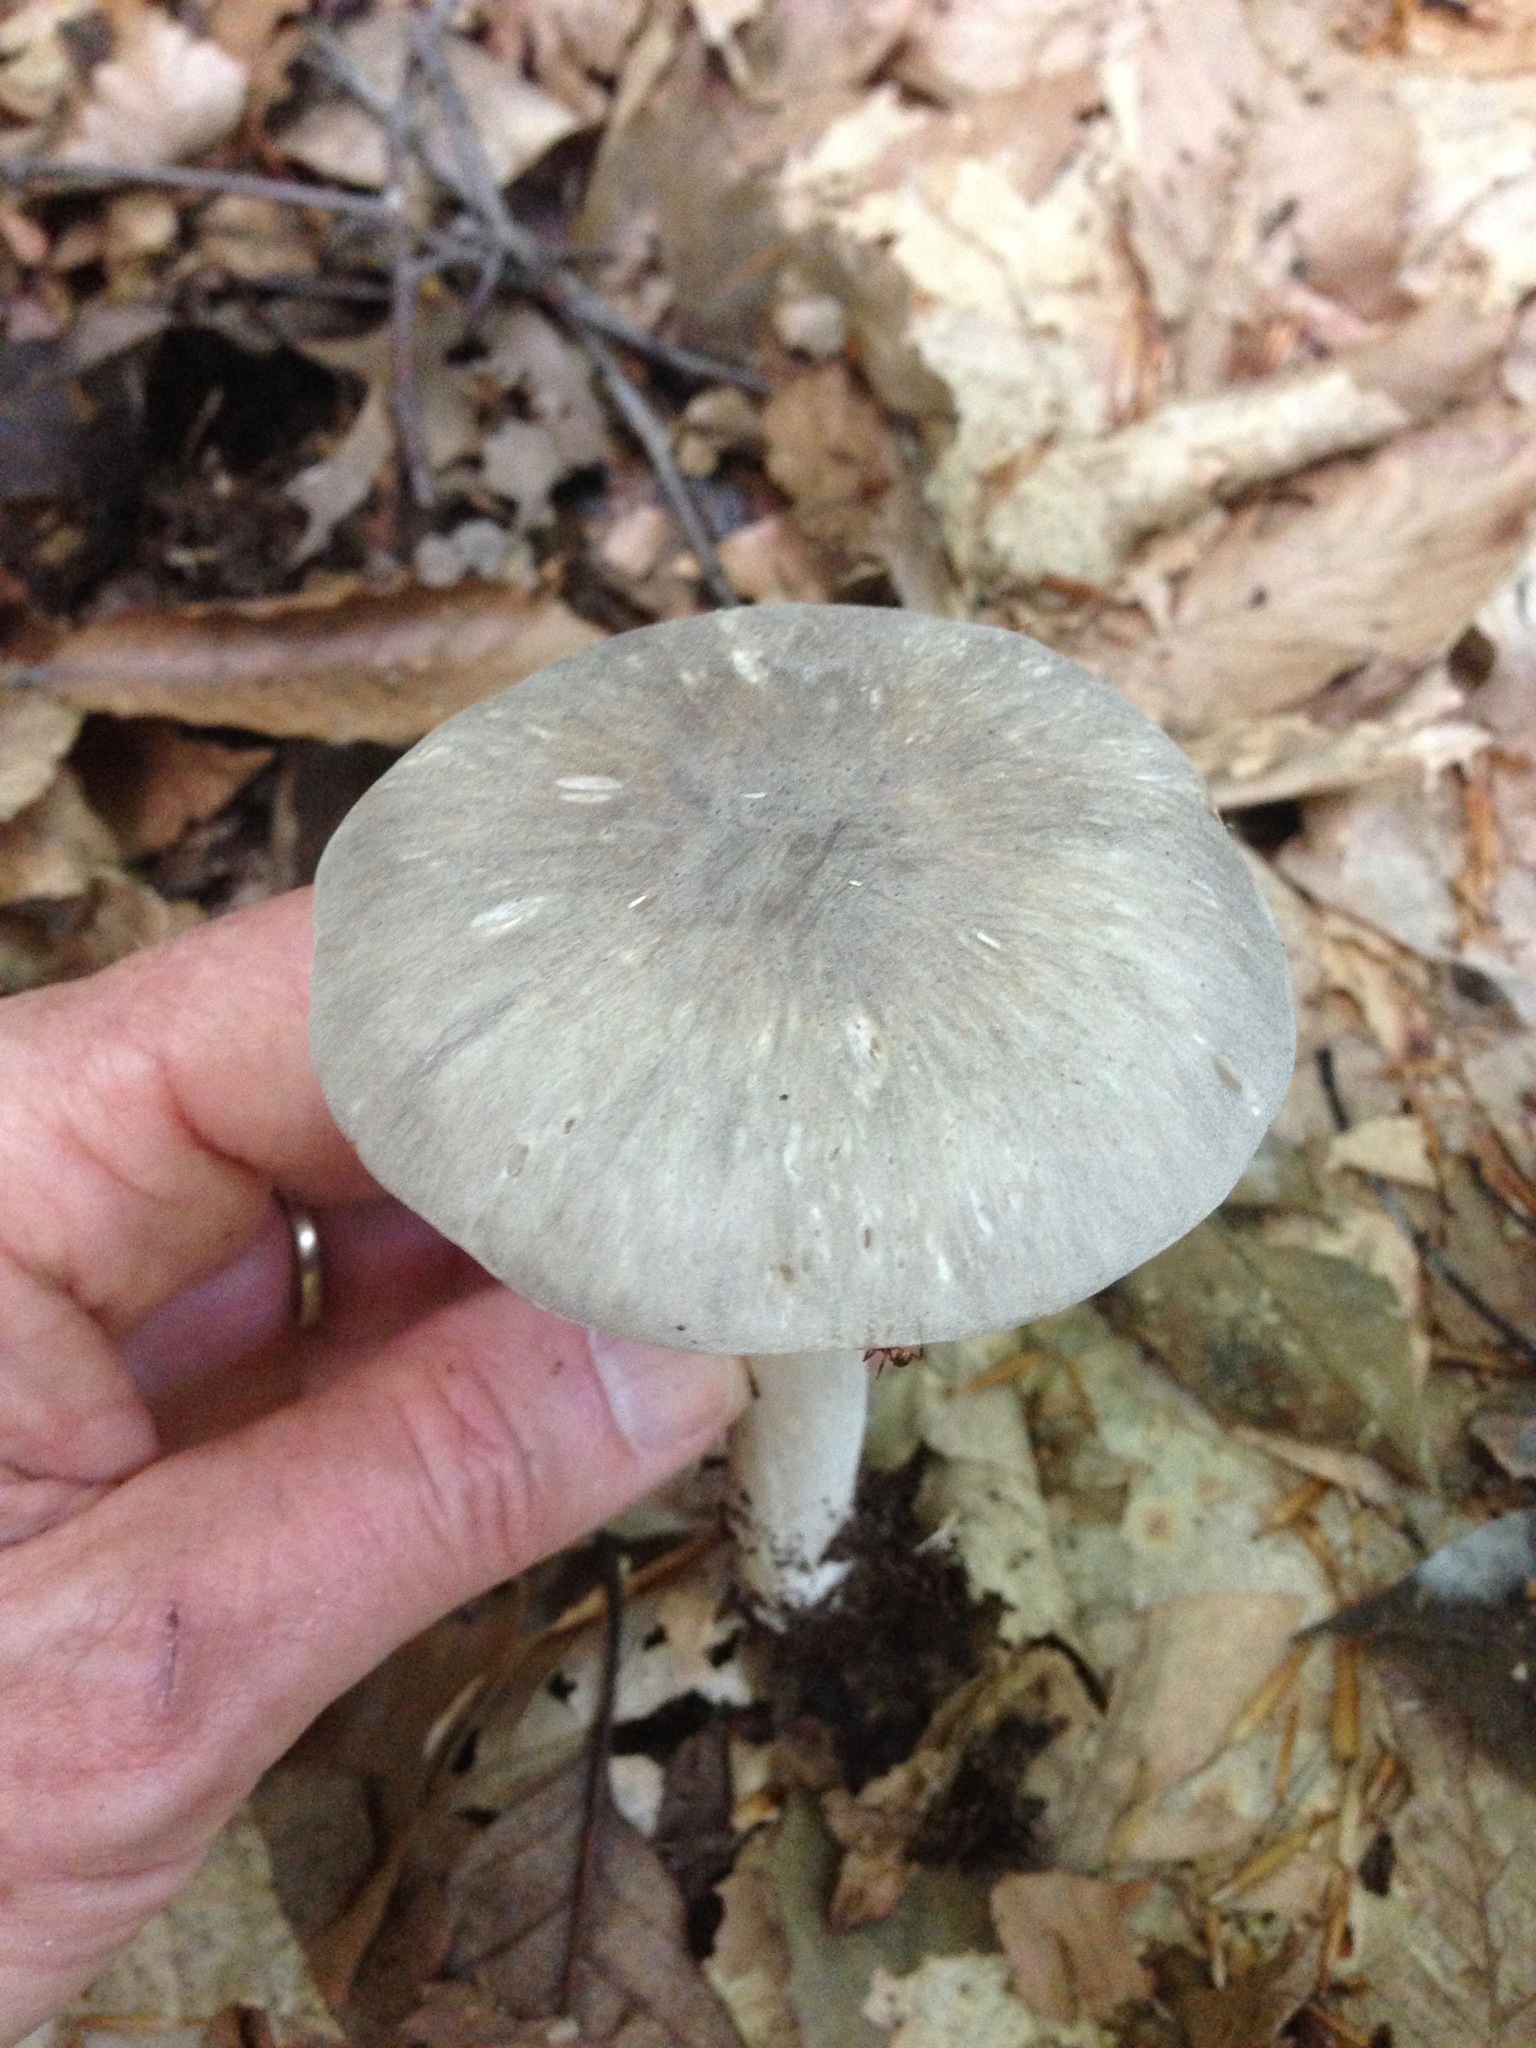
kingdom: Fungi
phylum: Basidiomycota
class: Agaricomycetes
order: Agaricales
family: Tricholomataceae
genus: Megacollybia
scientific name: Megacollybia rodmanii
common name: Eastern american platterful mushroom
